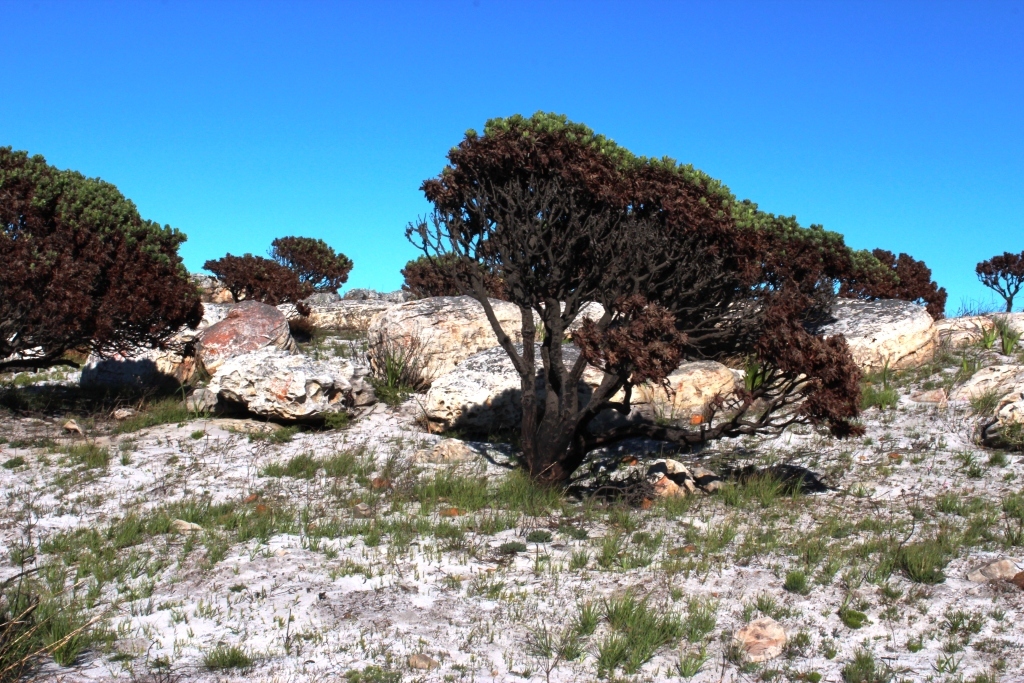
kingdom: Plantae
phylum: Tracheophyta
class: Magnoliopsida
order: Proteales
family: Proteaceae
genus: Mimetes
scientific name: Mimetes fimbriifolius
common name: Fringed bottlebrush
